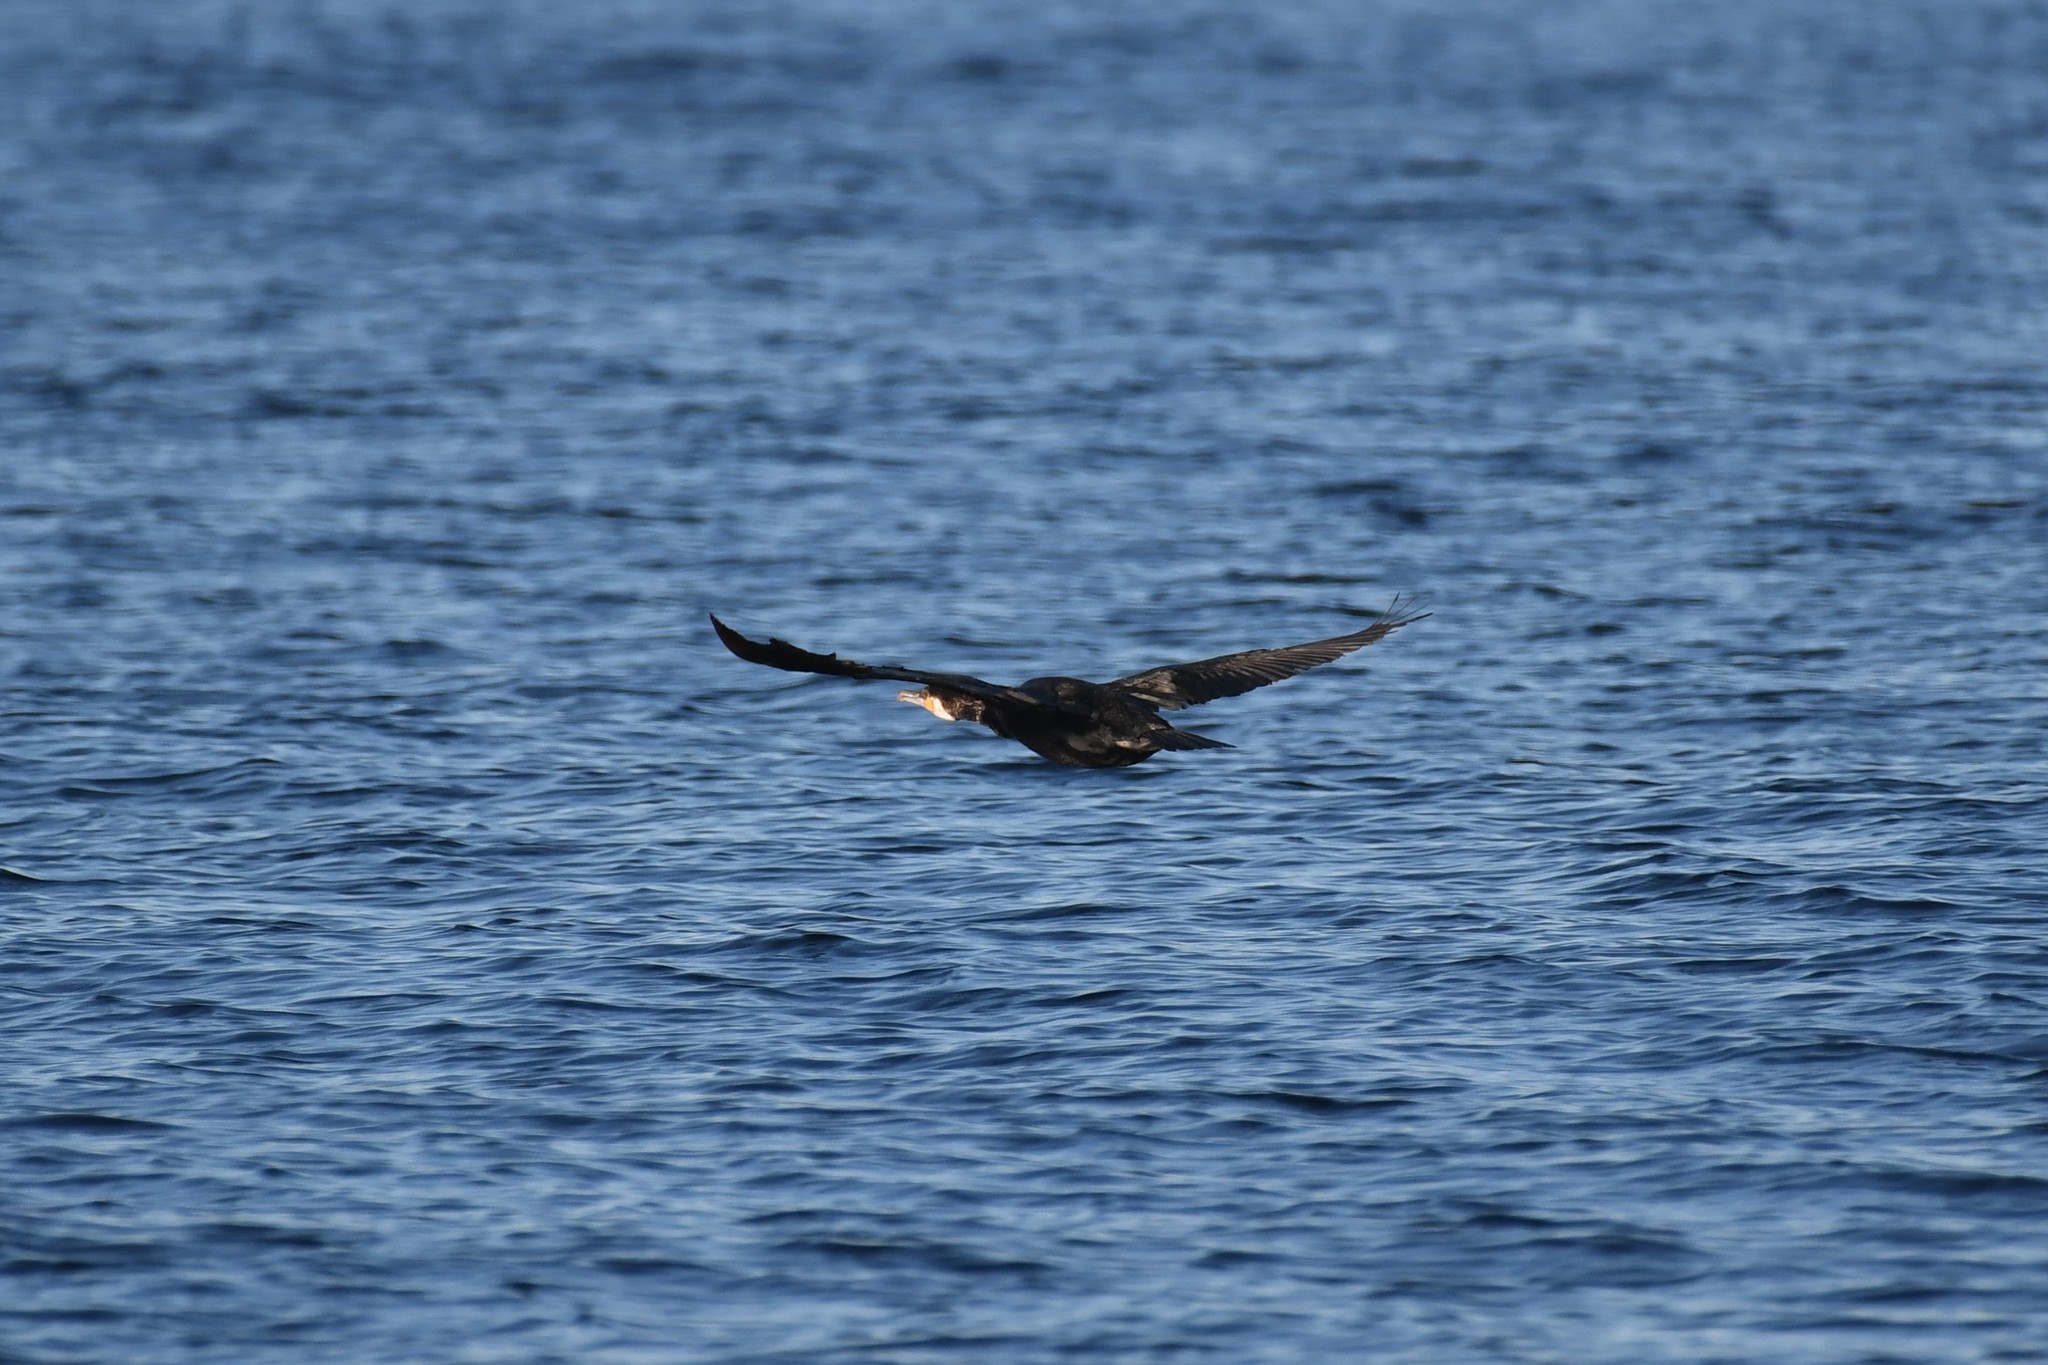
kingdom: Animalia
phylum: Chordata
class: Aves
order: Suliformes
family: Phalacrocoracidae
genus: Phalacrocorax
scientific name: Phalacrocorax carbo
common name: Great cormorant
